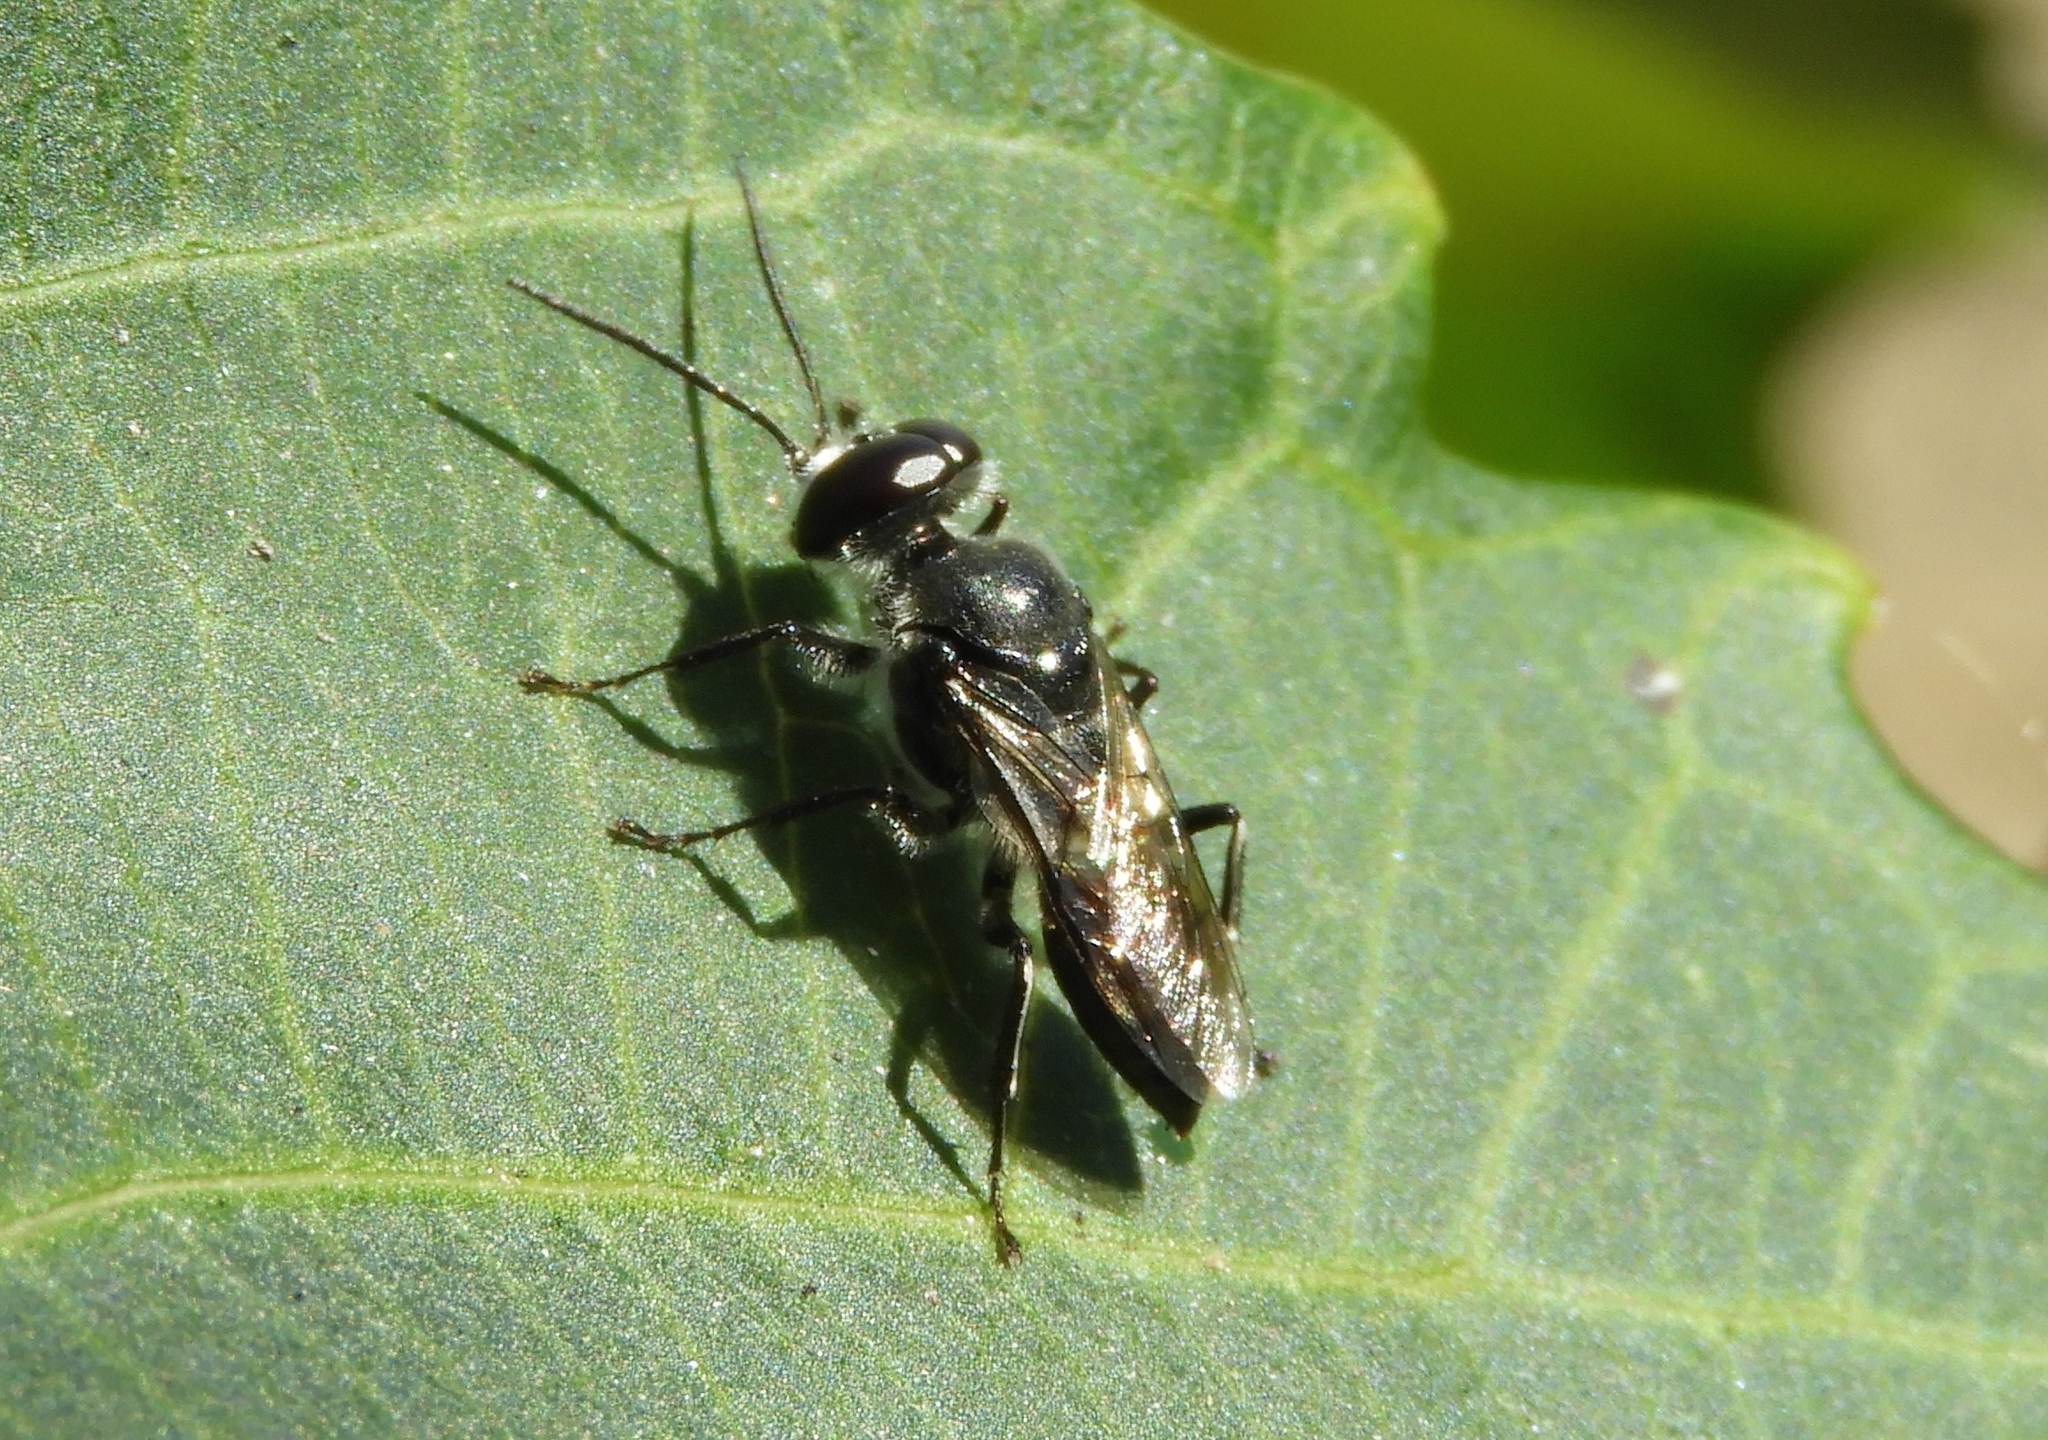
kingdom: Animalia
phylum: Arthropoda
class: Insecta
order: Hymenoptera
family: Crabronidae
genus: Astata
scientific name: Astata
